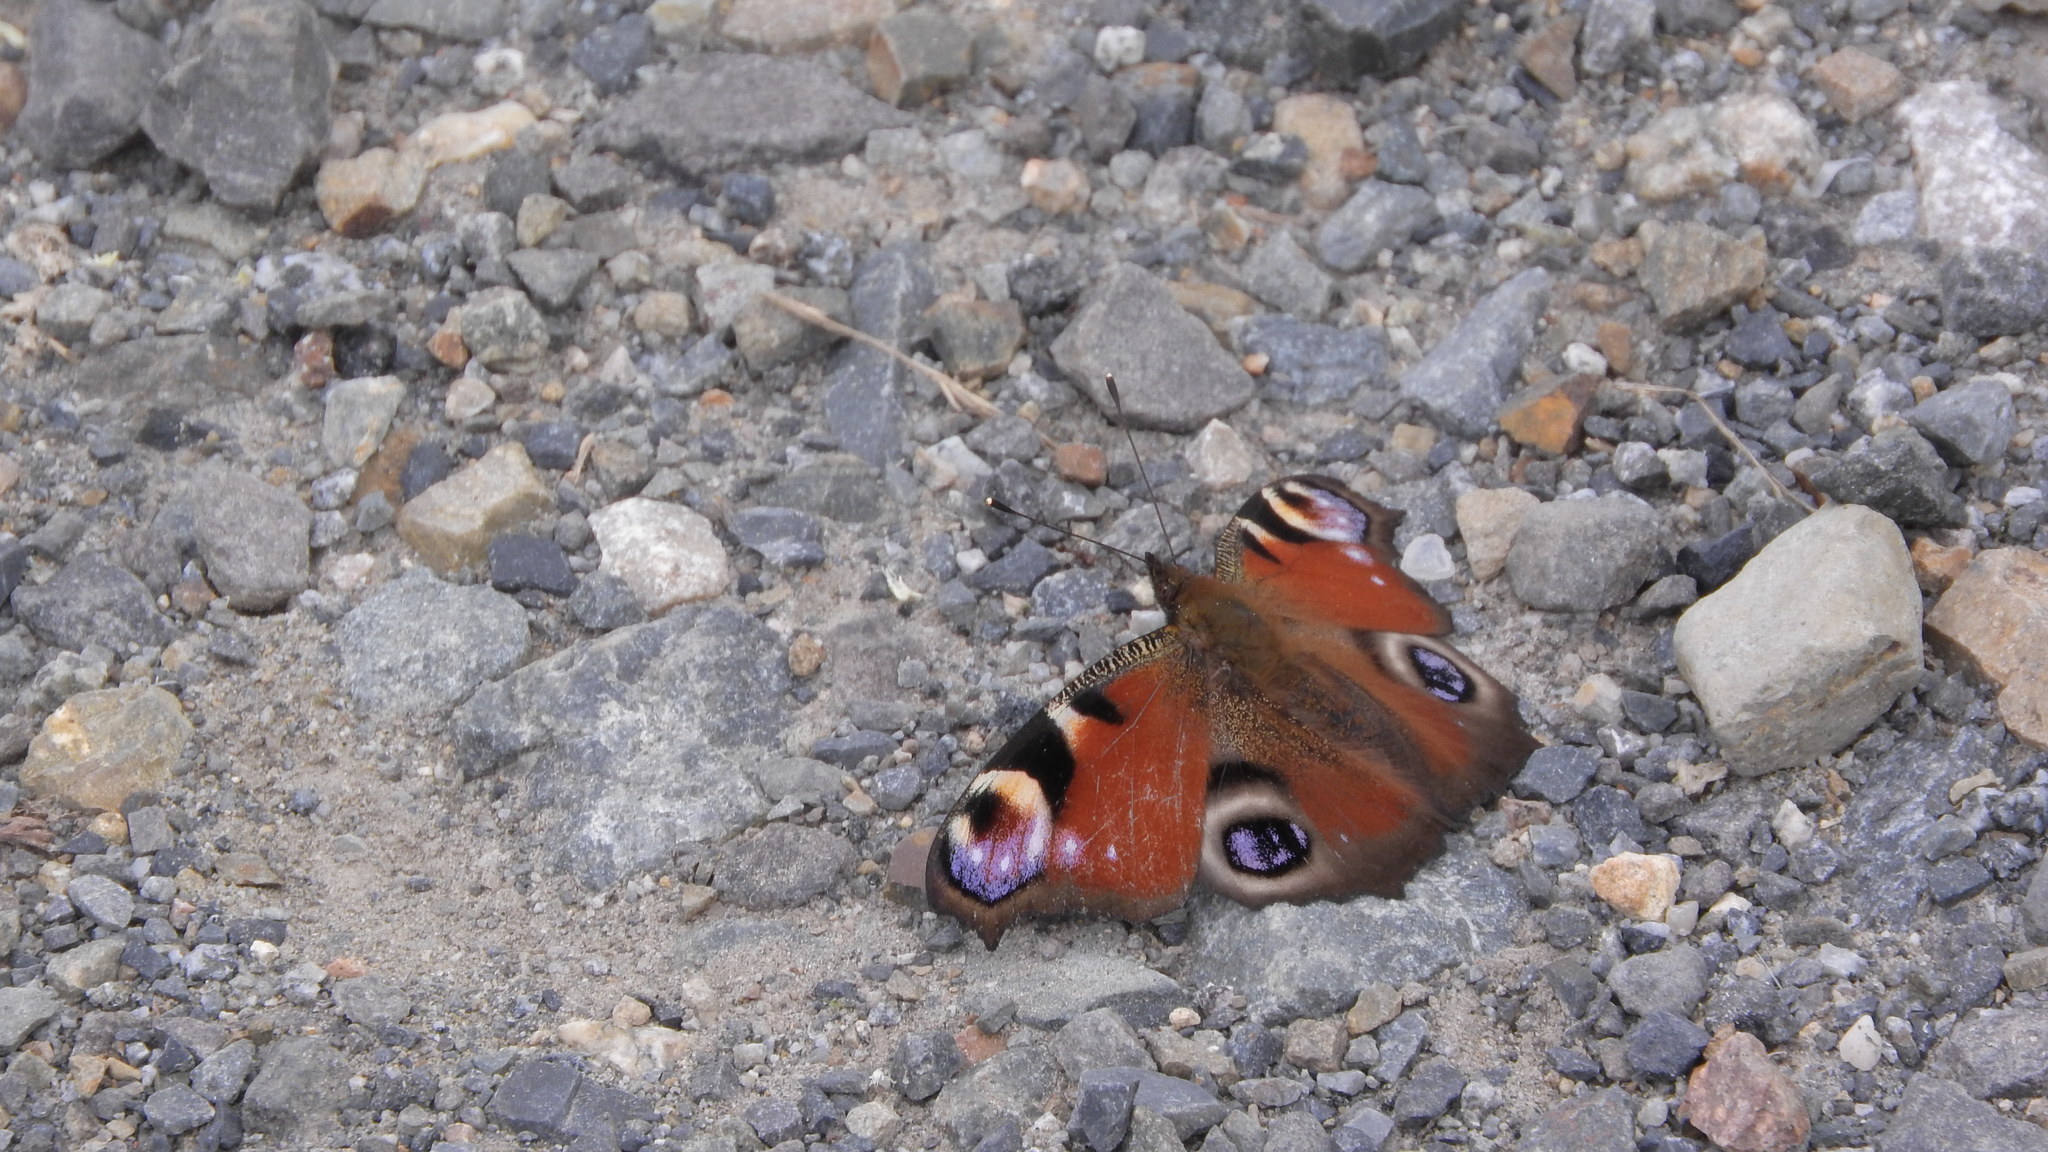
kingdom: Animalia
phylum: Arthropoda
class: Insecta
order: Lepidoptera
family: Nymphalidae
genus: Aglais
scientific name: Aglais io
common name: Peacock
